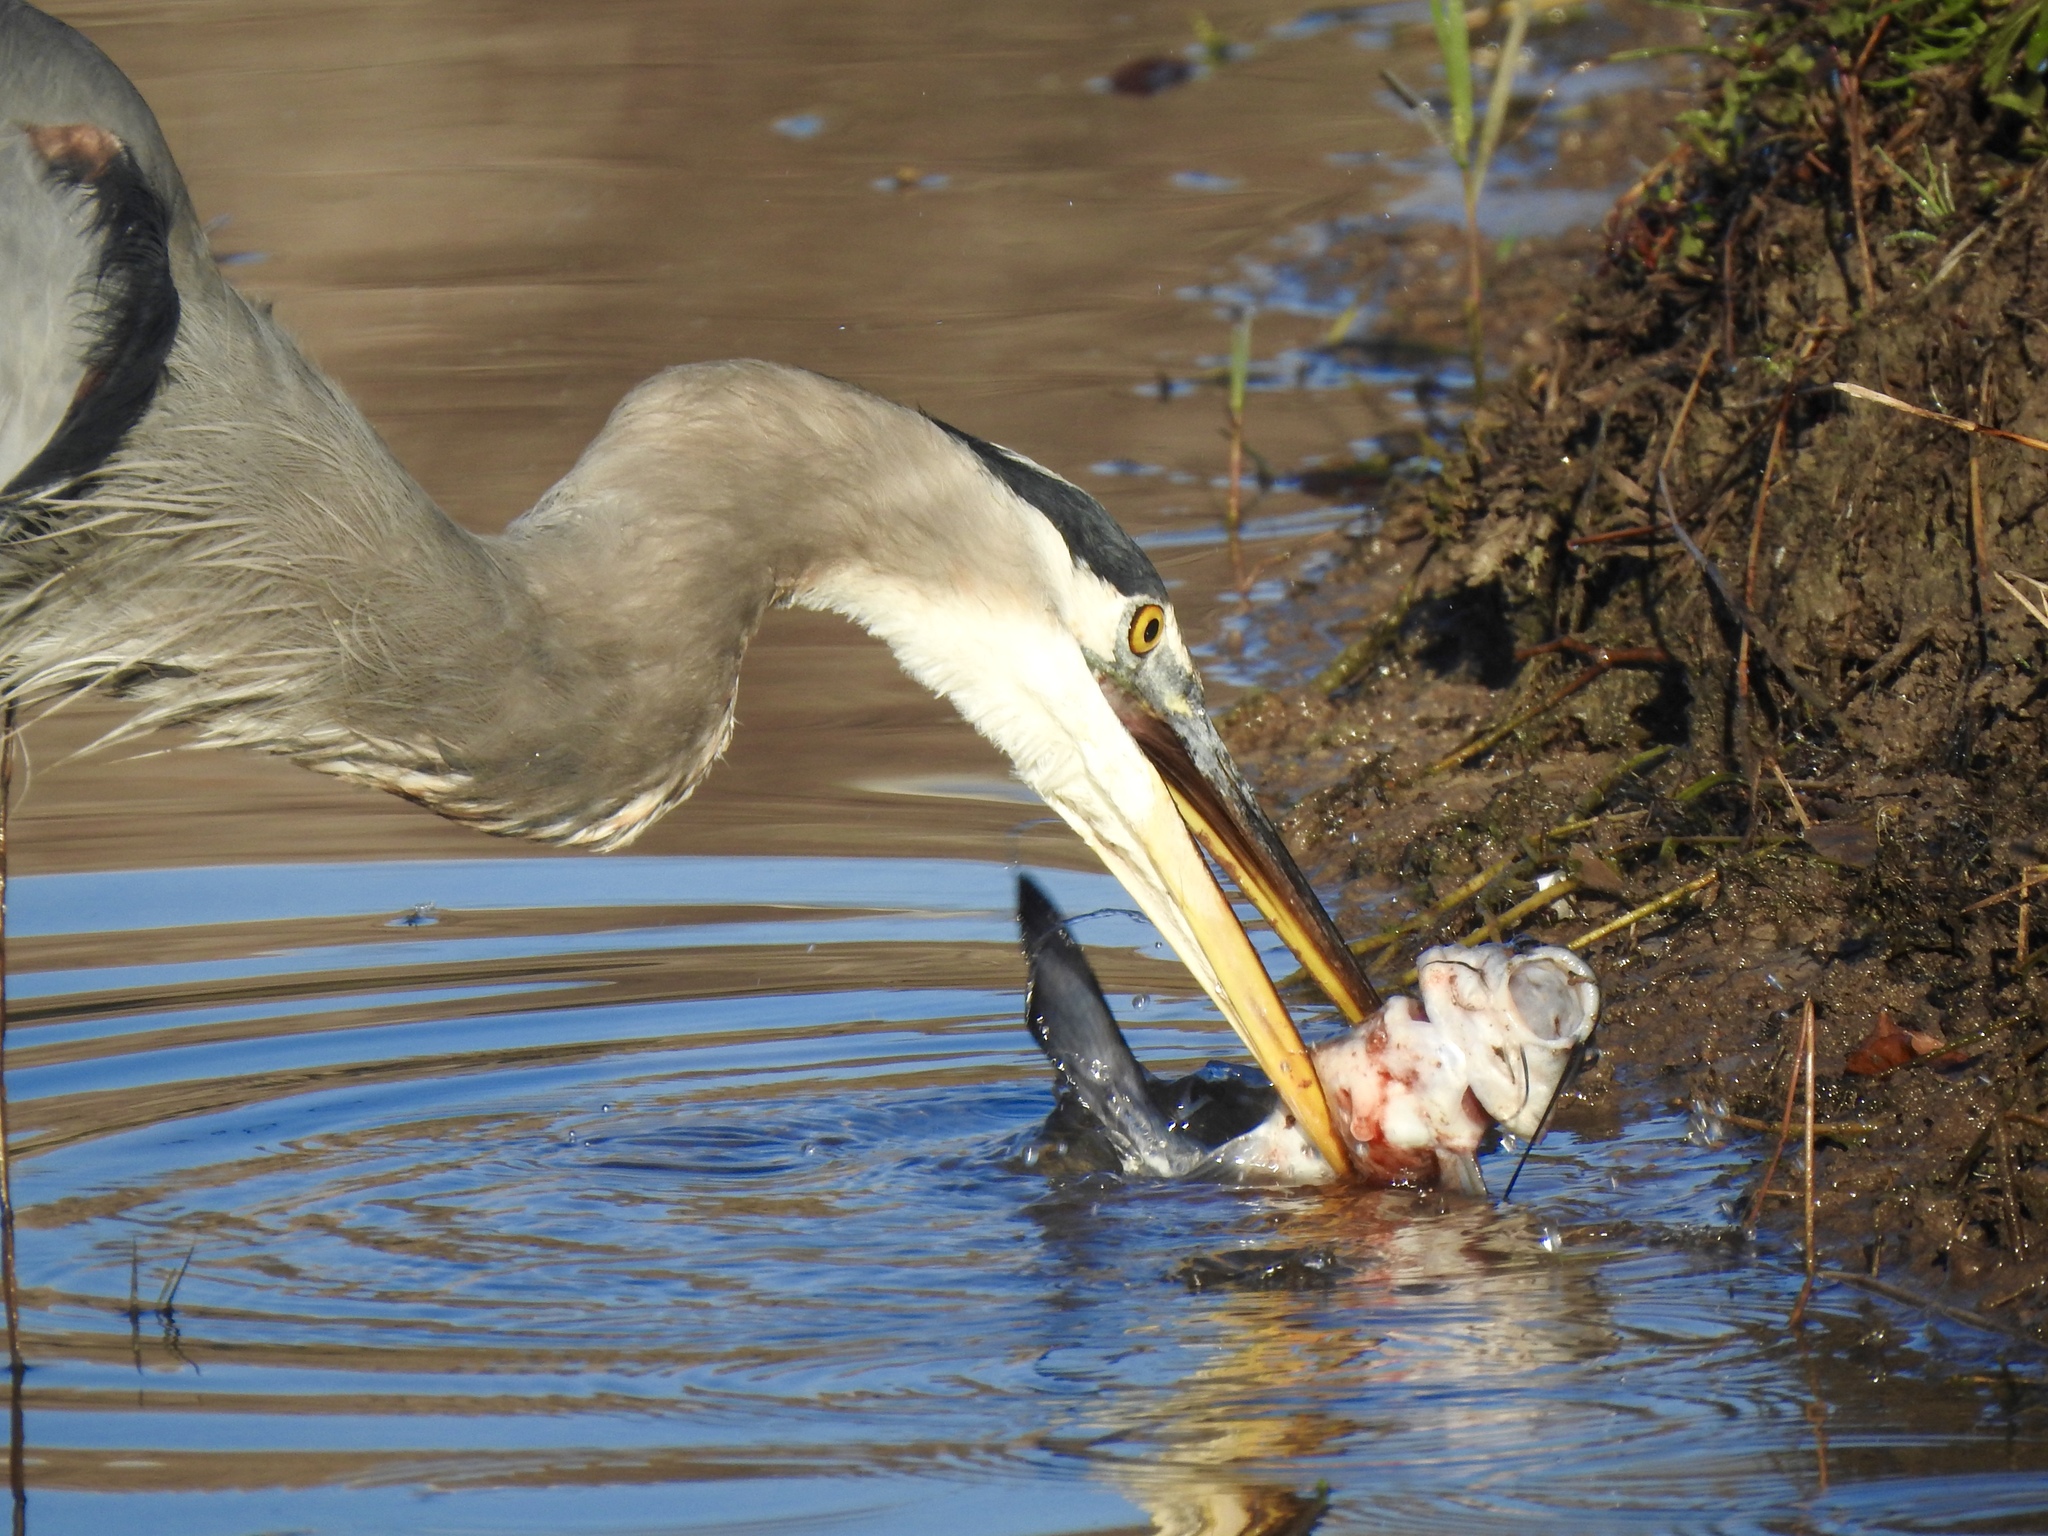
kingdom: Animalia
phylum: Chordata
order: Siluriformes
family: Ictaluridae
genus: Ictalurus
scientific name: Ictalurus punctatus
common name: Channel catfish
